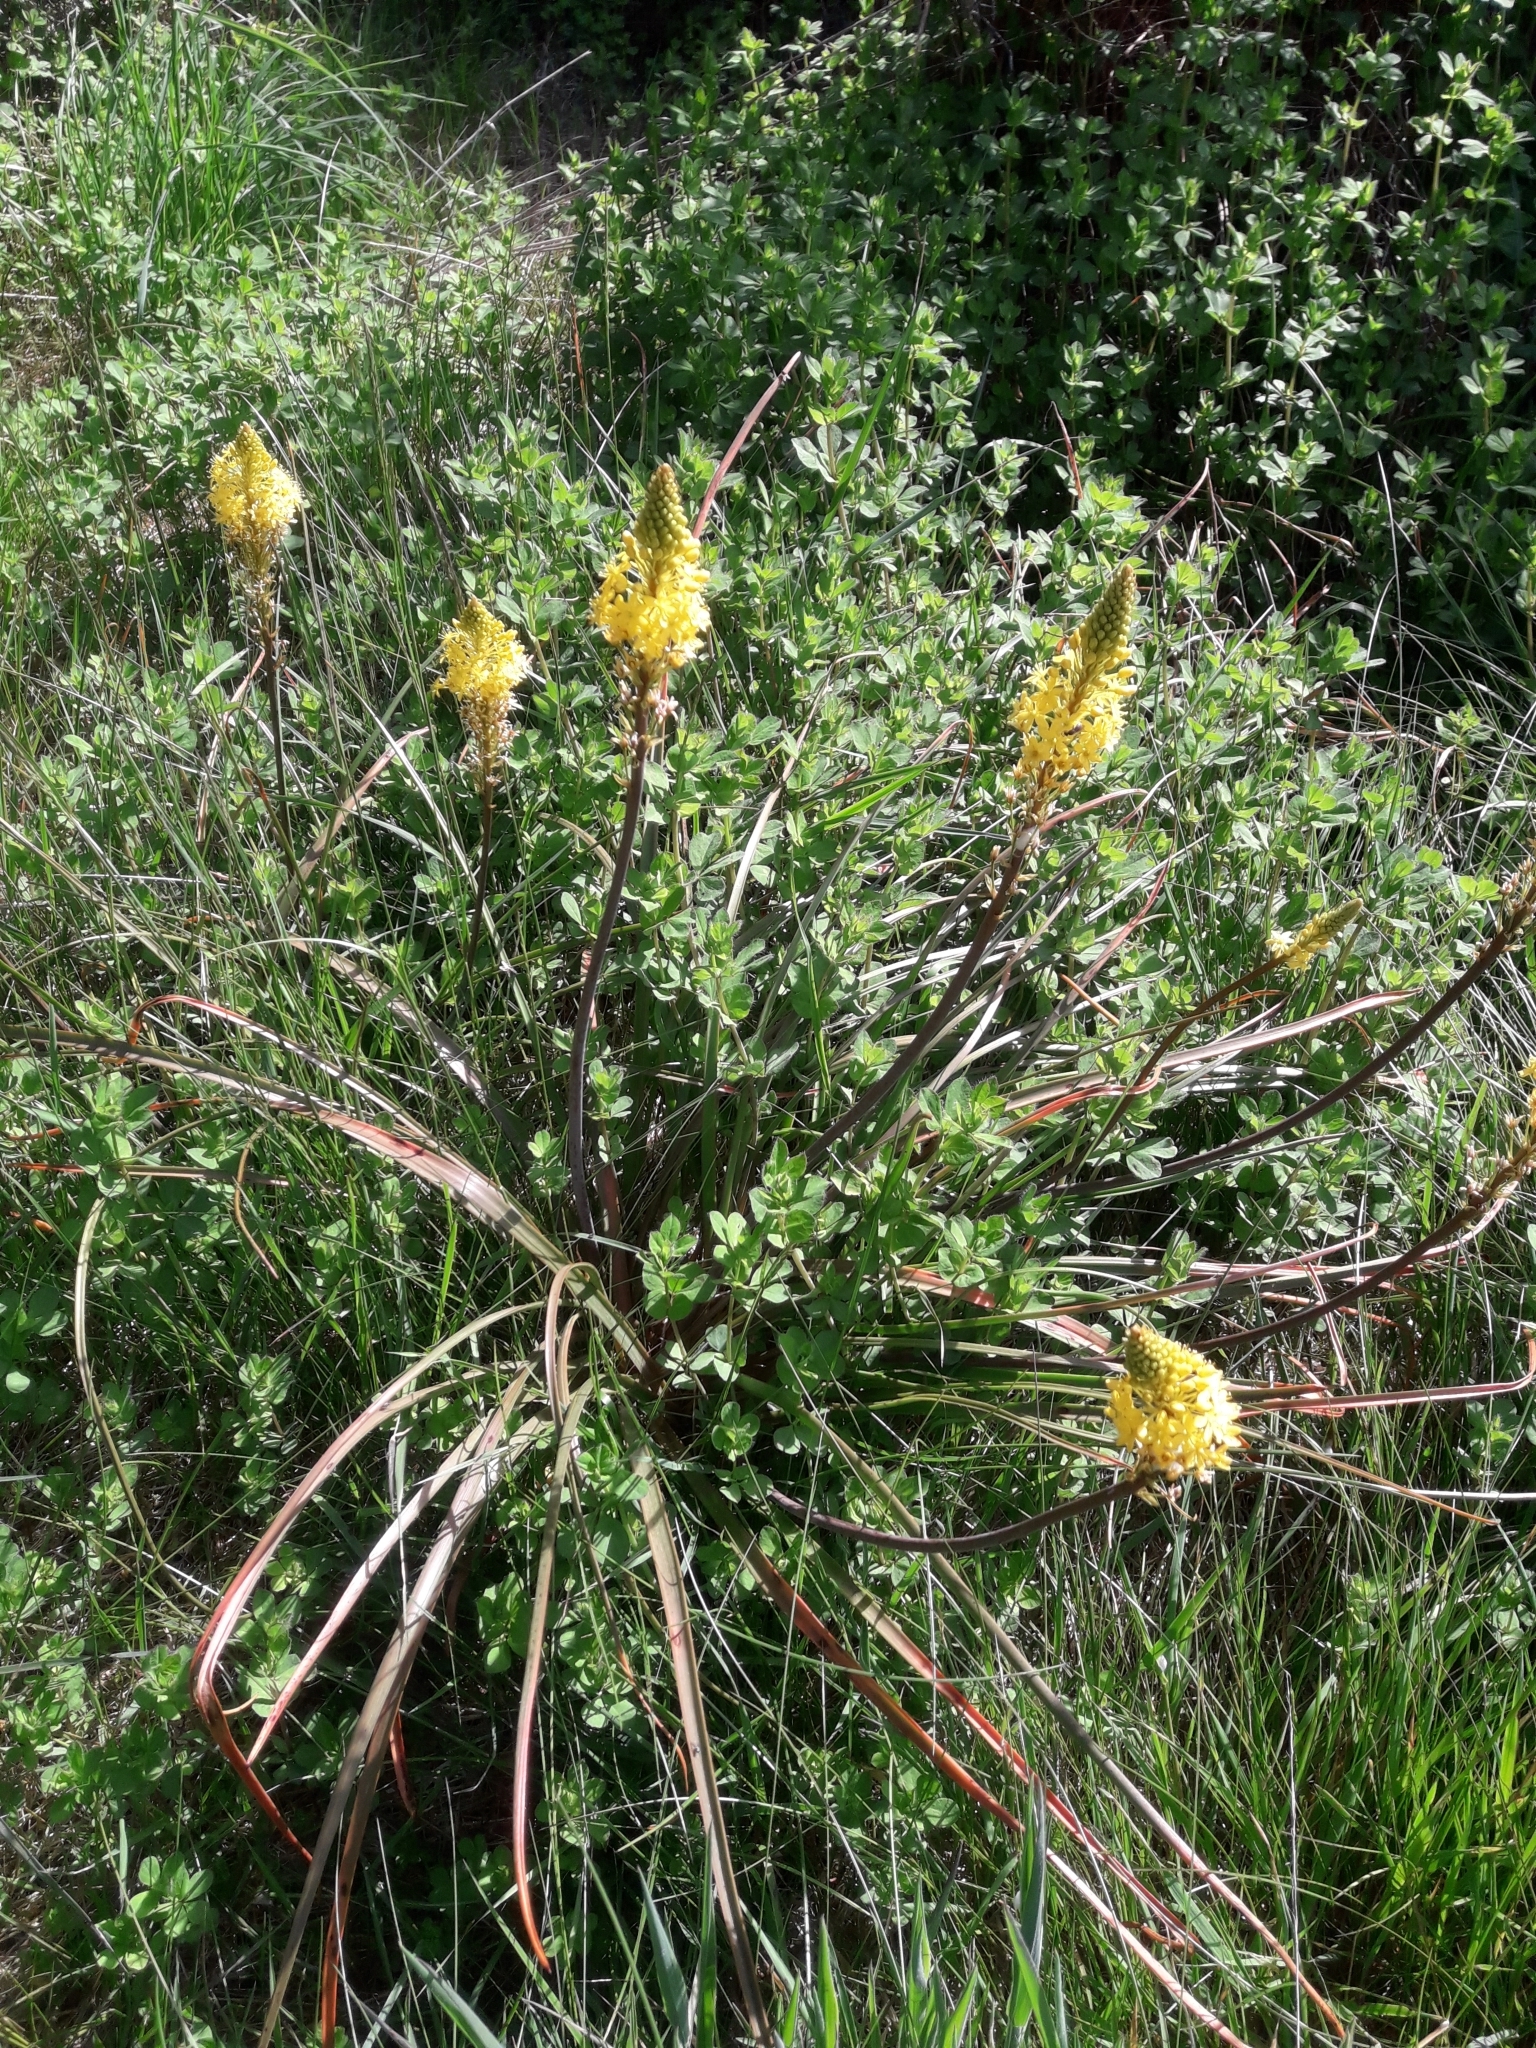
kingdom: Plantae
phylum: Tracheophyta
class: Liliopsida
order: Asparagales
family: Asphodelaceae
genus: Bulbinella
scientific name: Bulbinella angustifolia
